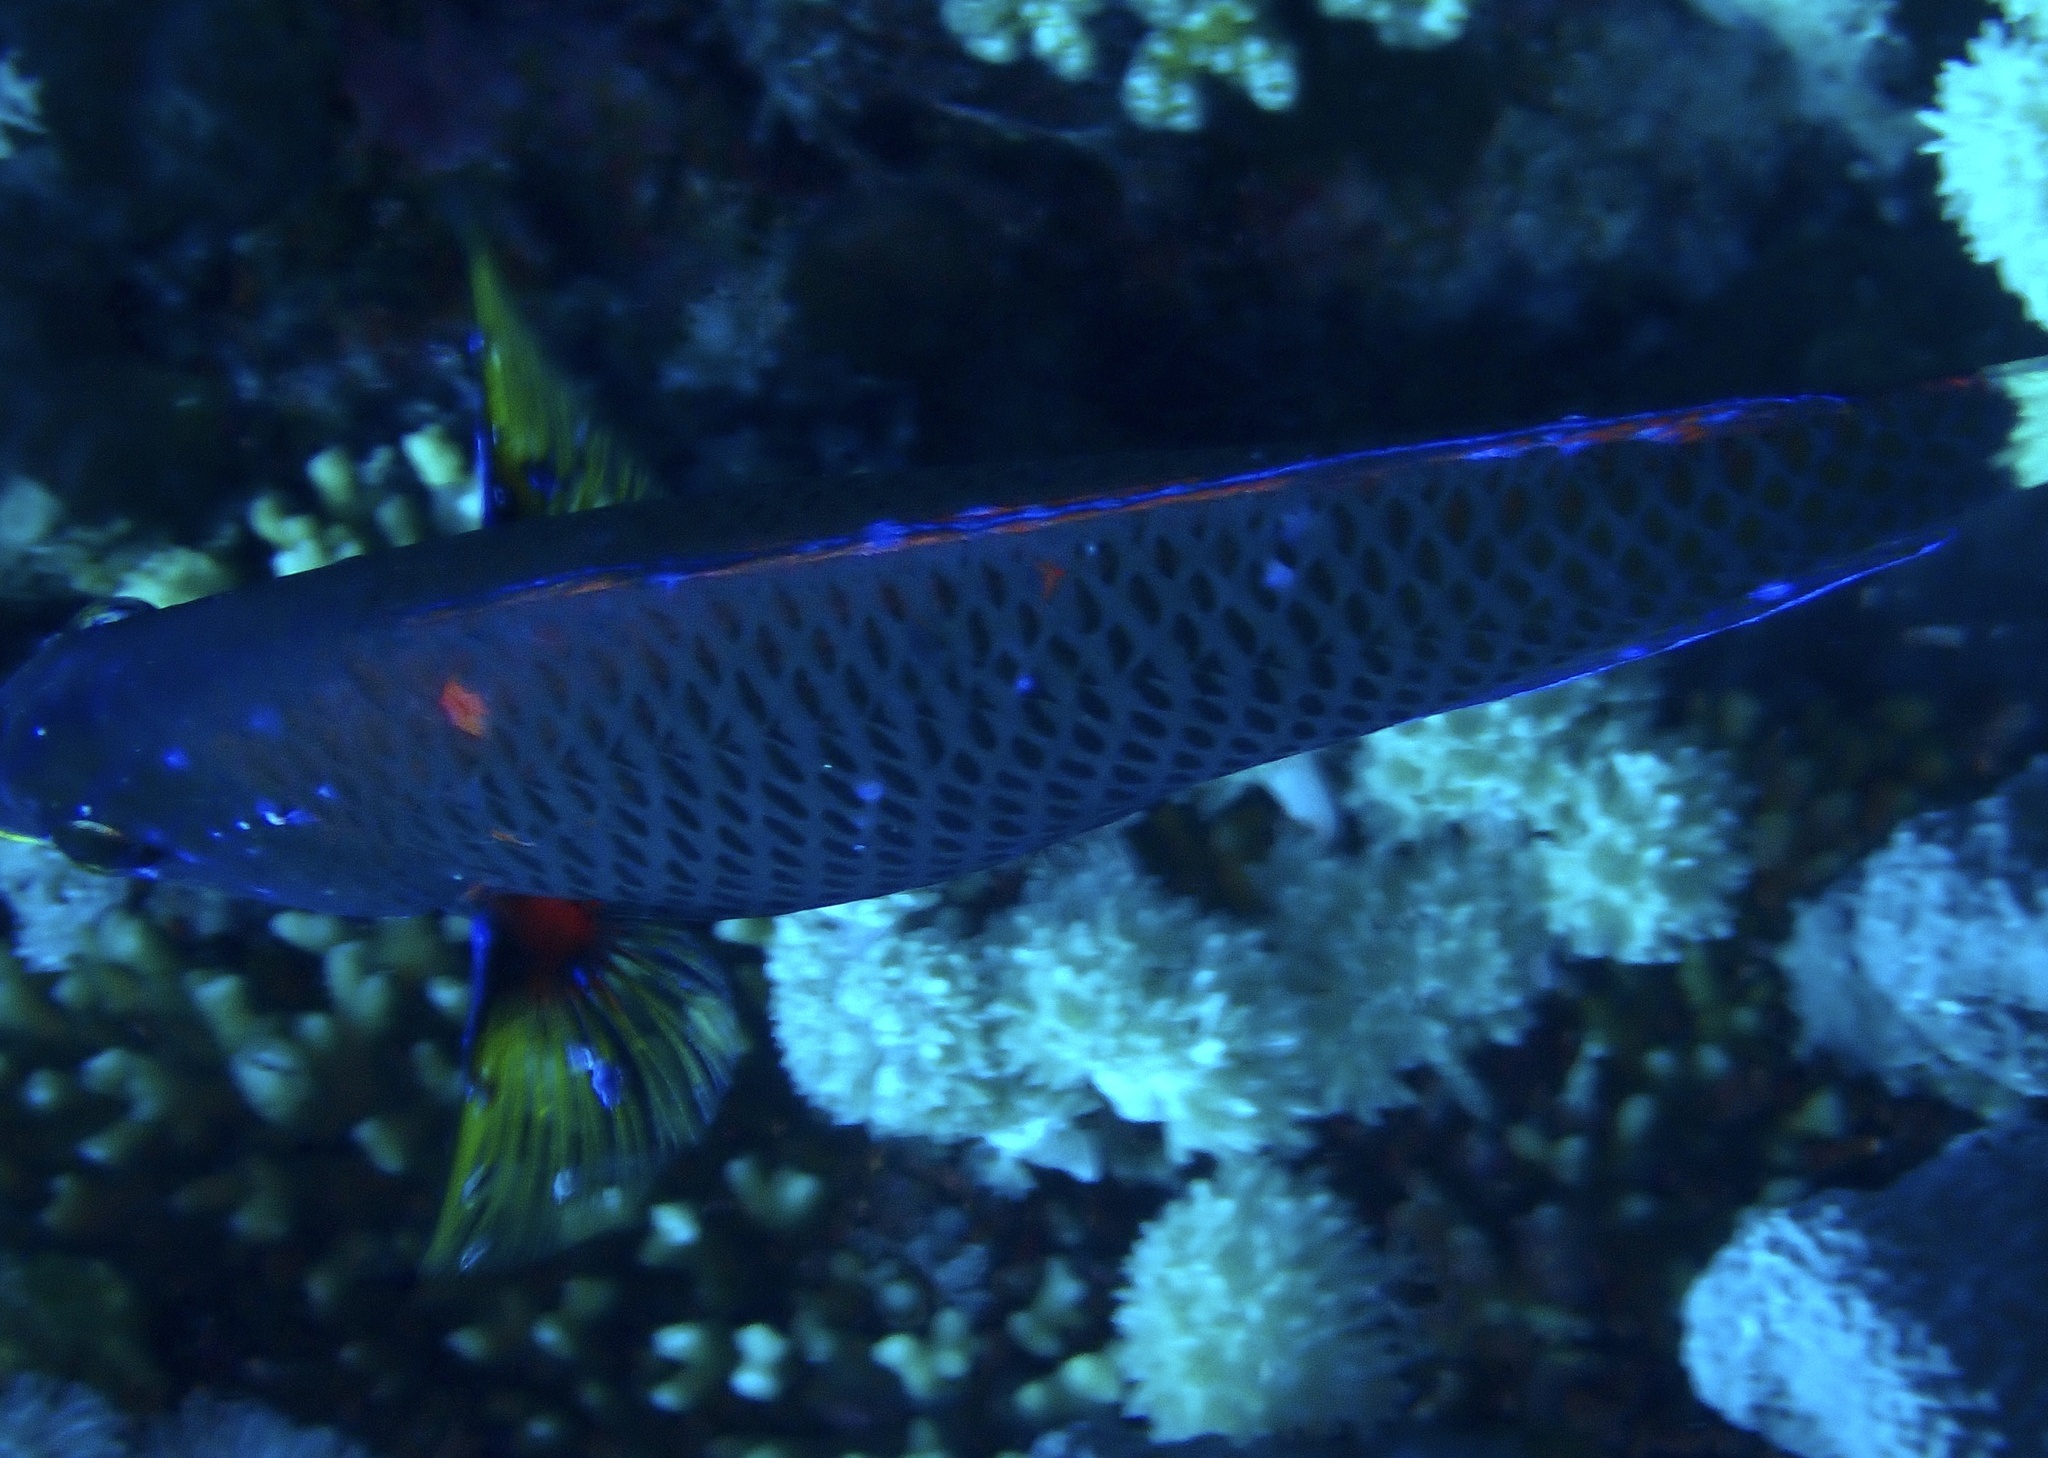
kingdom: Animalia
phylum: Chordata
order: Perciformes
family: Labridae
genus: Pseudodax
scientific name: Pseudodax moluccanus
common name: Chiseltooth wrasse
